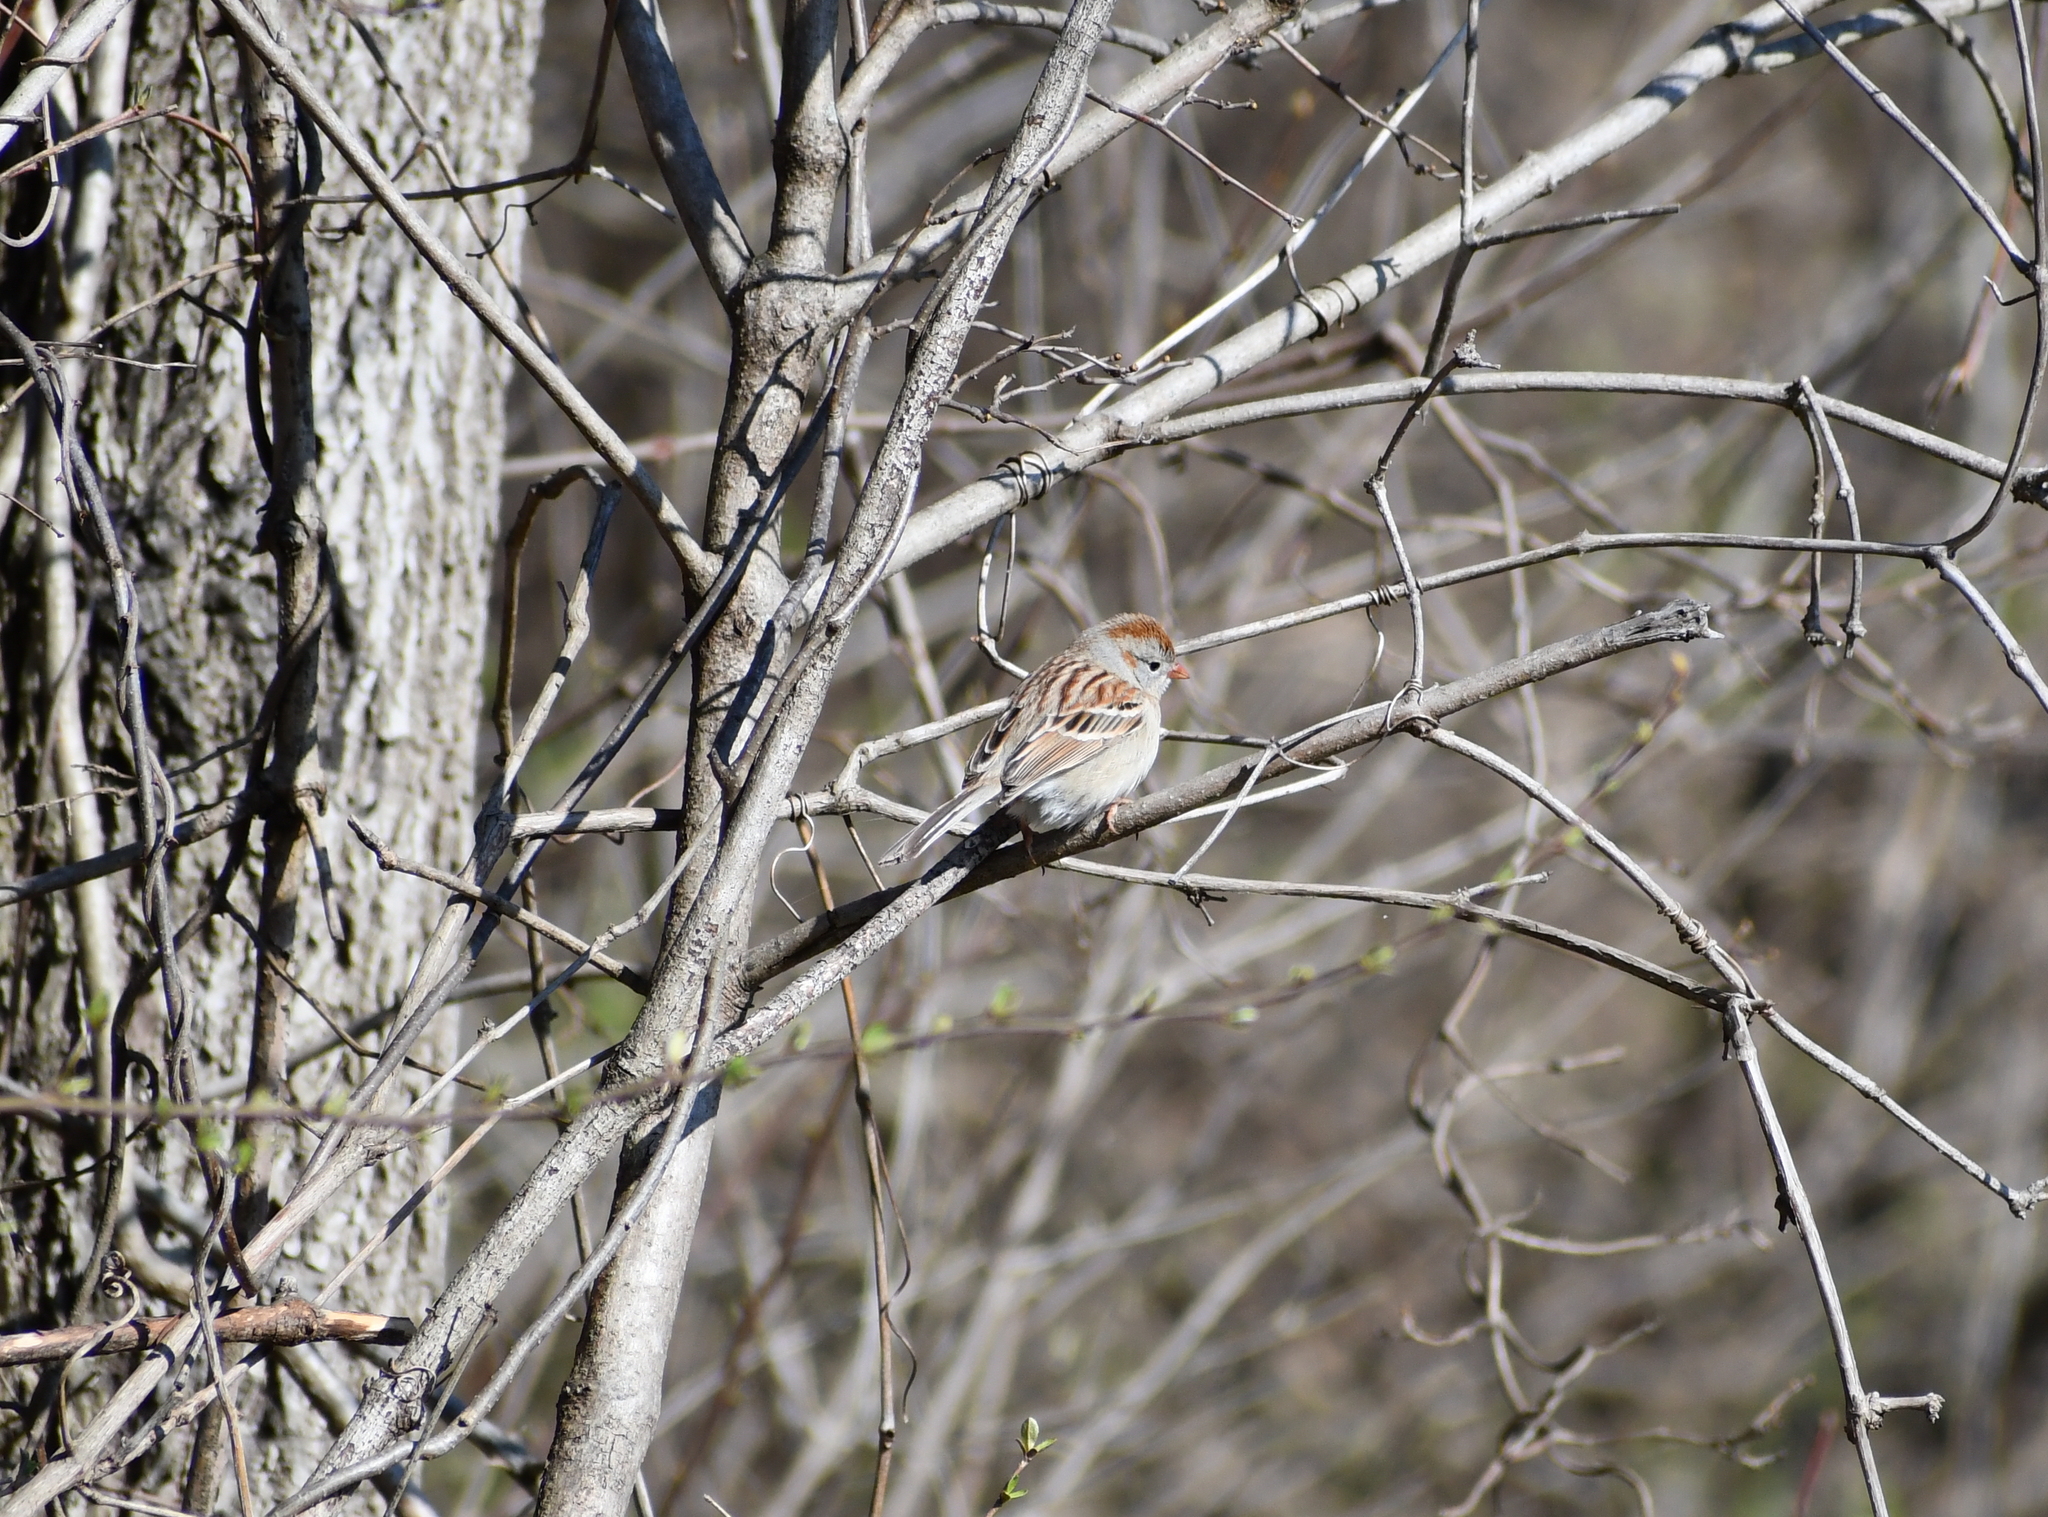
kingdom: Animalia
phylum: Chordata
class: Aves
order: Passeriformes
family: Passerellidae
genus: Spizella
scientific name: Spizella pusilla
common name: Field sparrow
